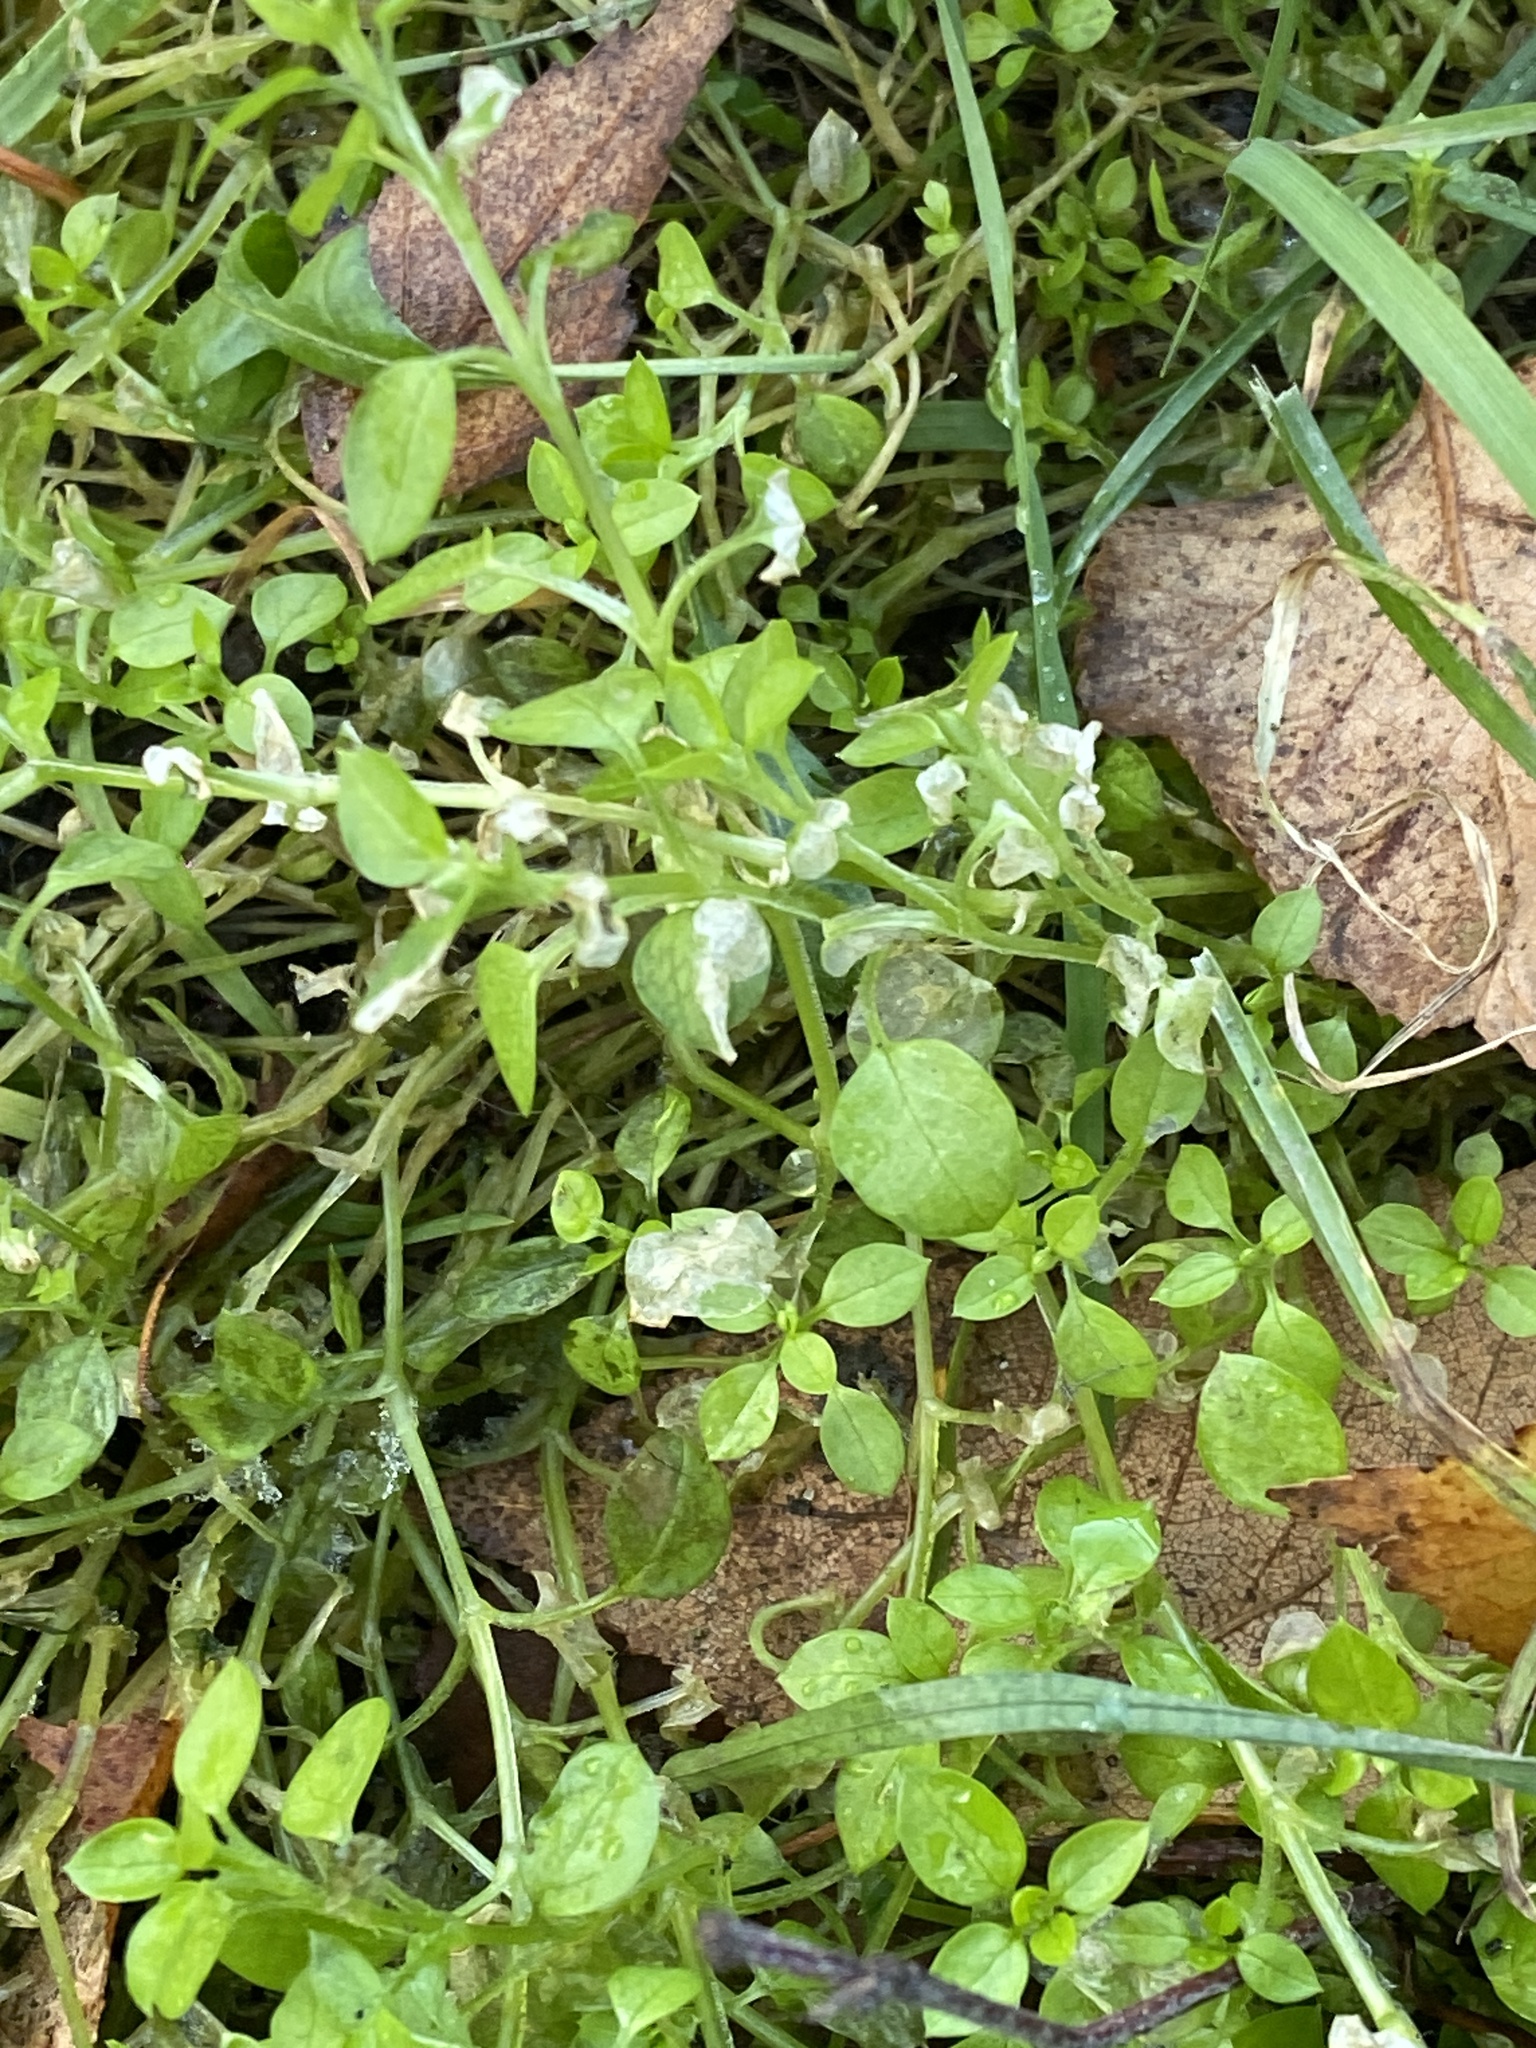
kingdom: Plantae
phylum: Tracheophyta
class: Magnoliopsida
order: Caryophyllales
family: Caryophyllaceae
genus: Stellaria
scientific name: Stellaria media
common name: Common chickweed
